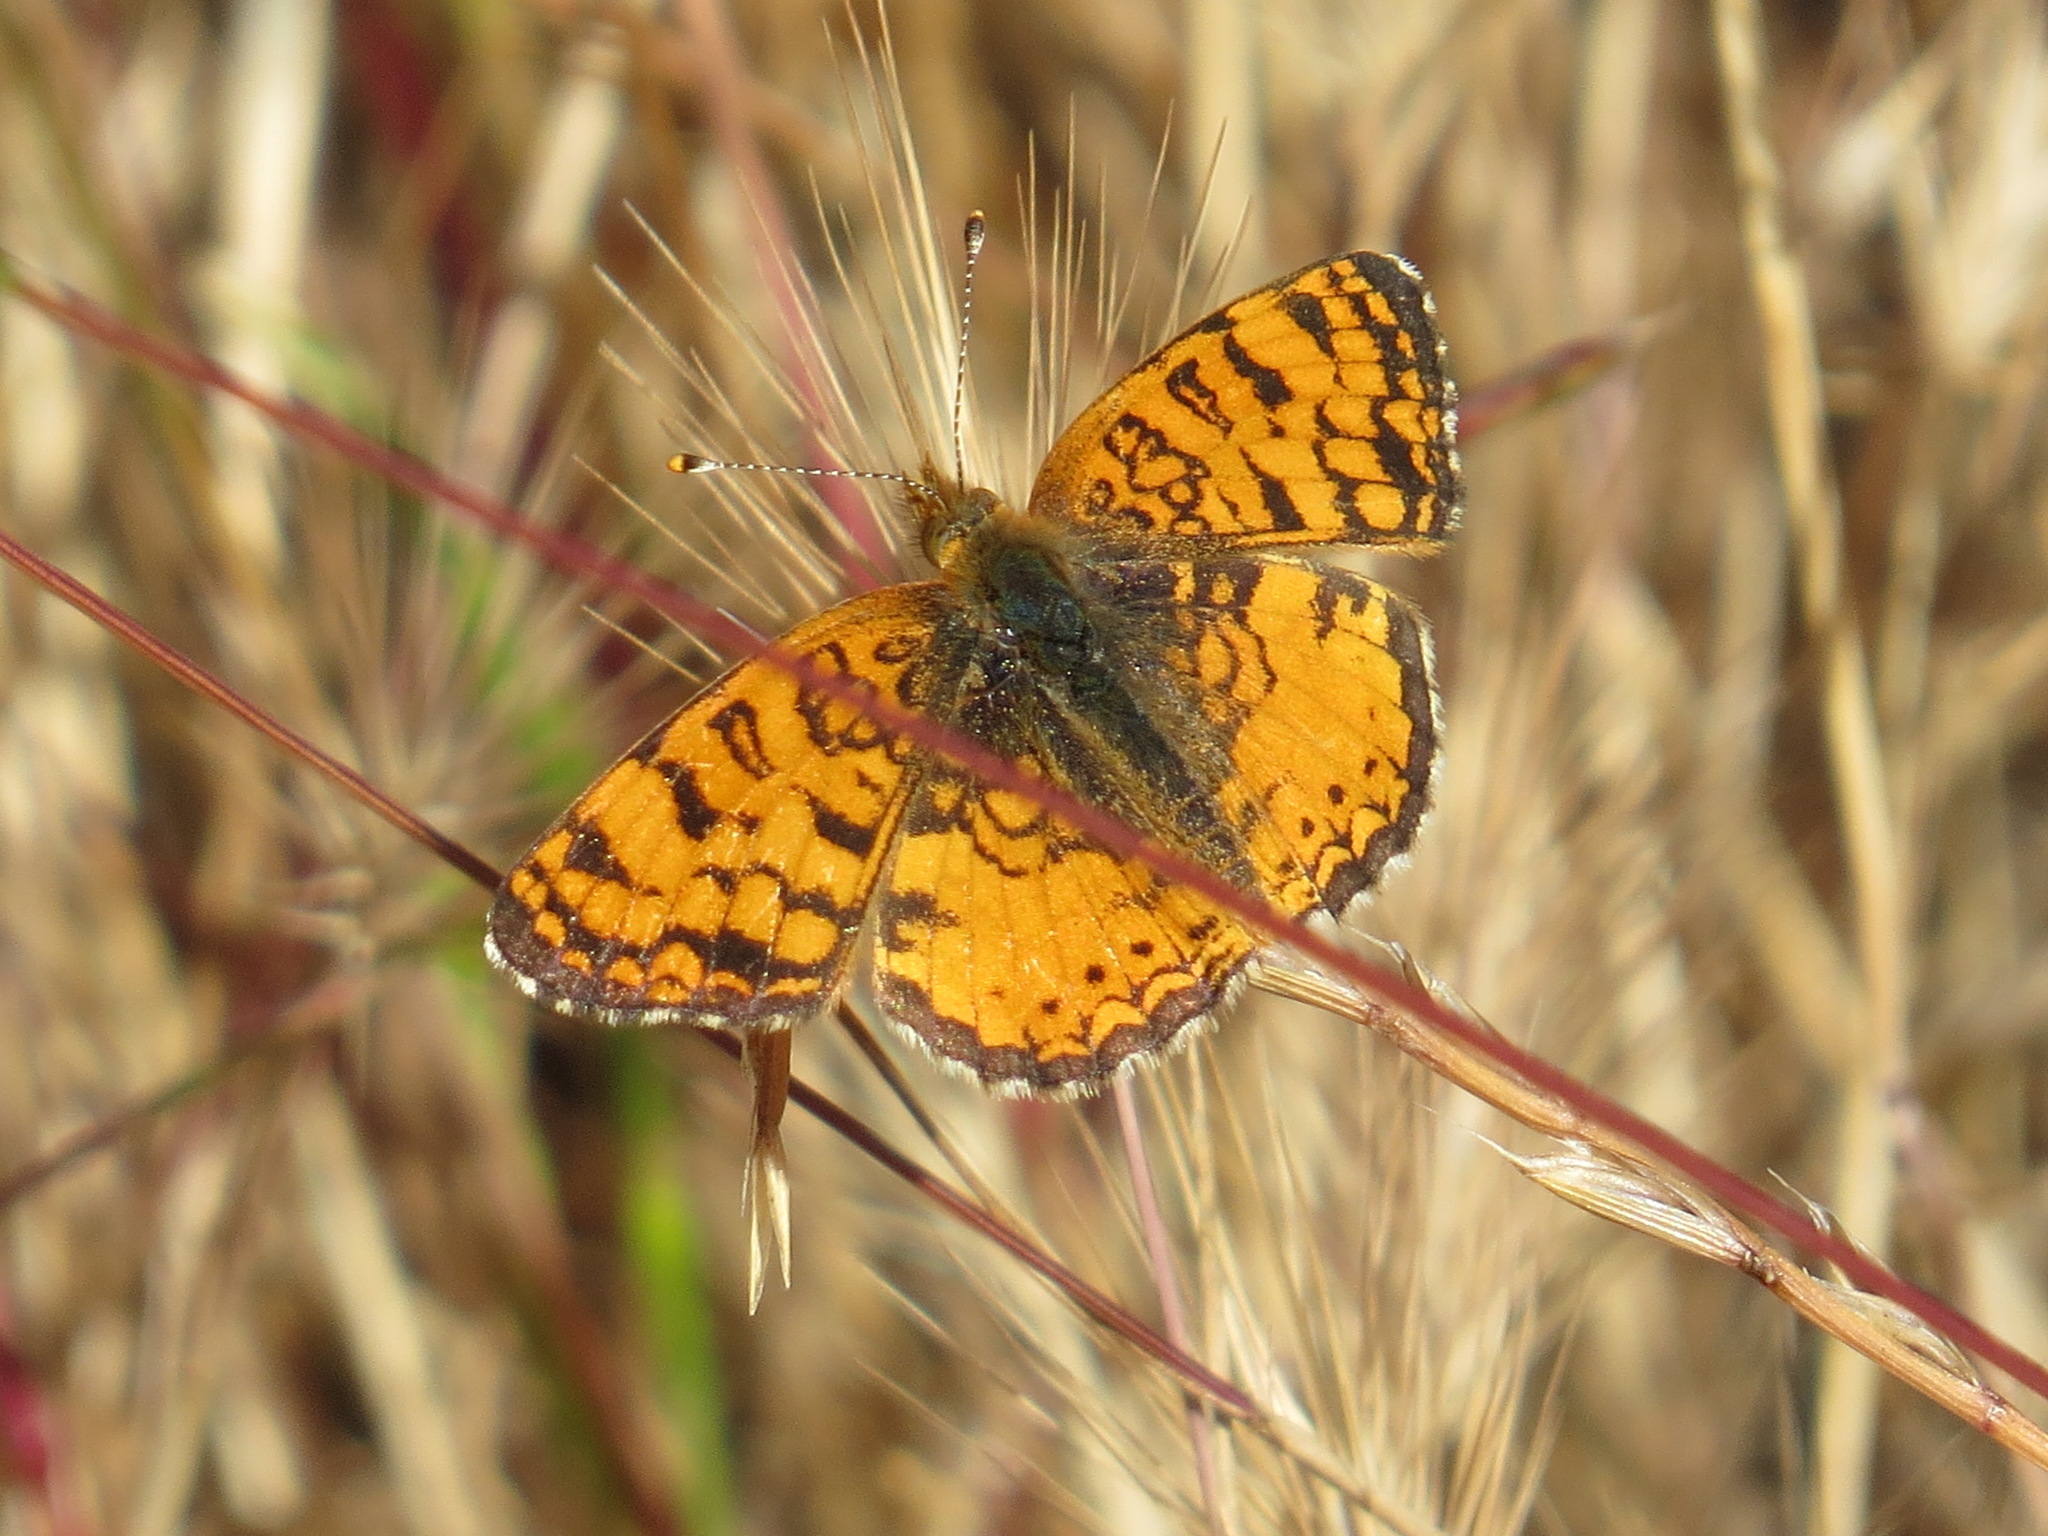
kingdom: Animalia
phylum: Arthropoda
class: Insecta
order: Lepidoptera
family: Nymphalidae
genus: Eresia
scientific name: Eresia aveyrona
